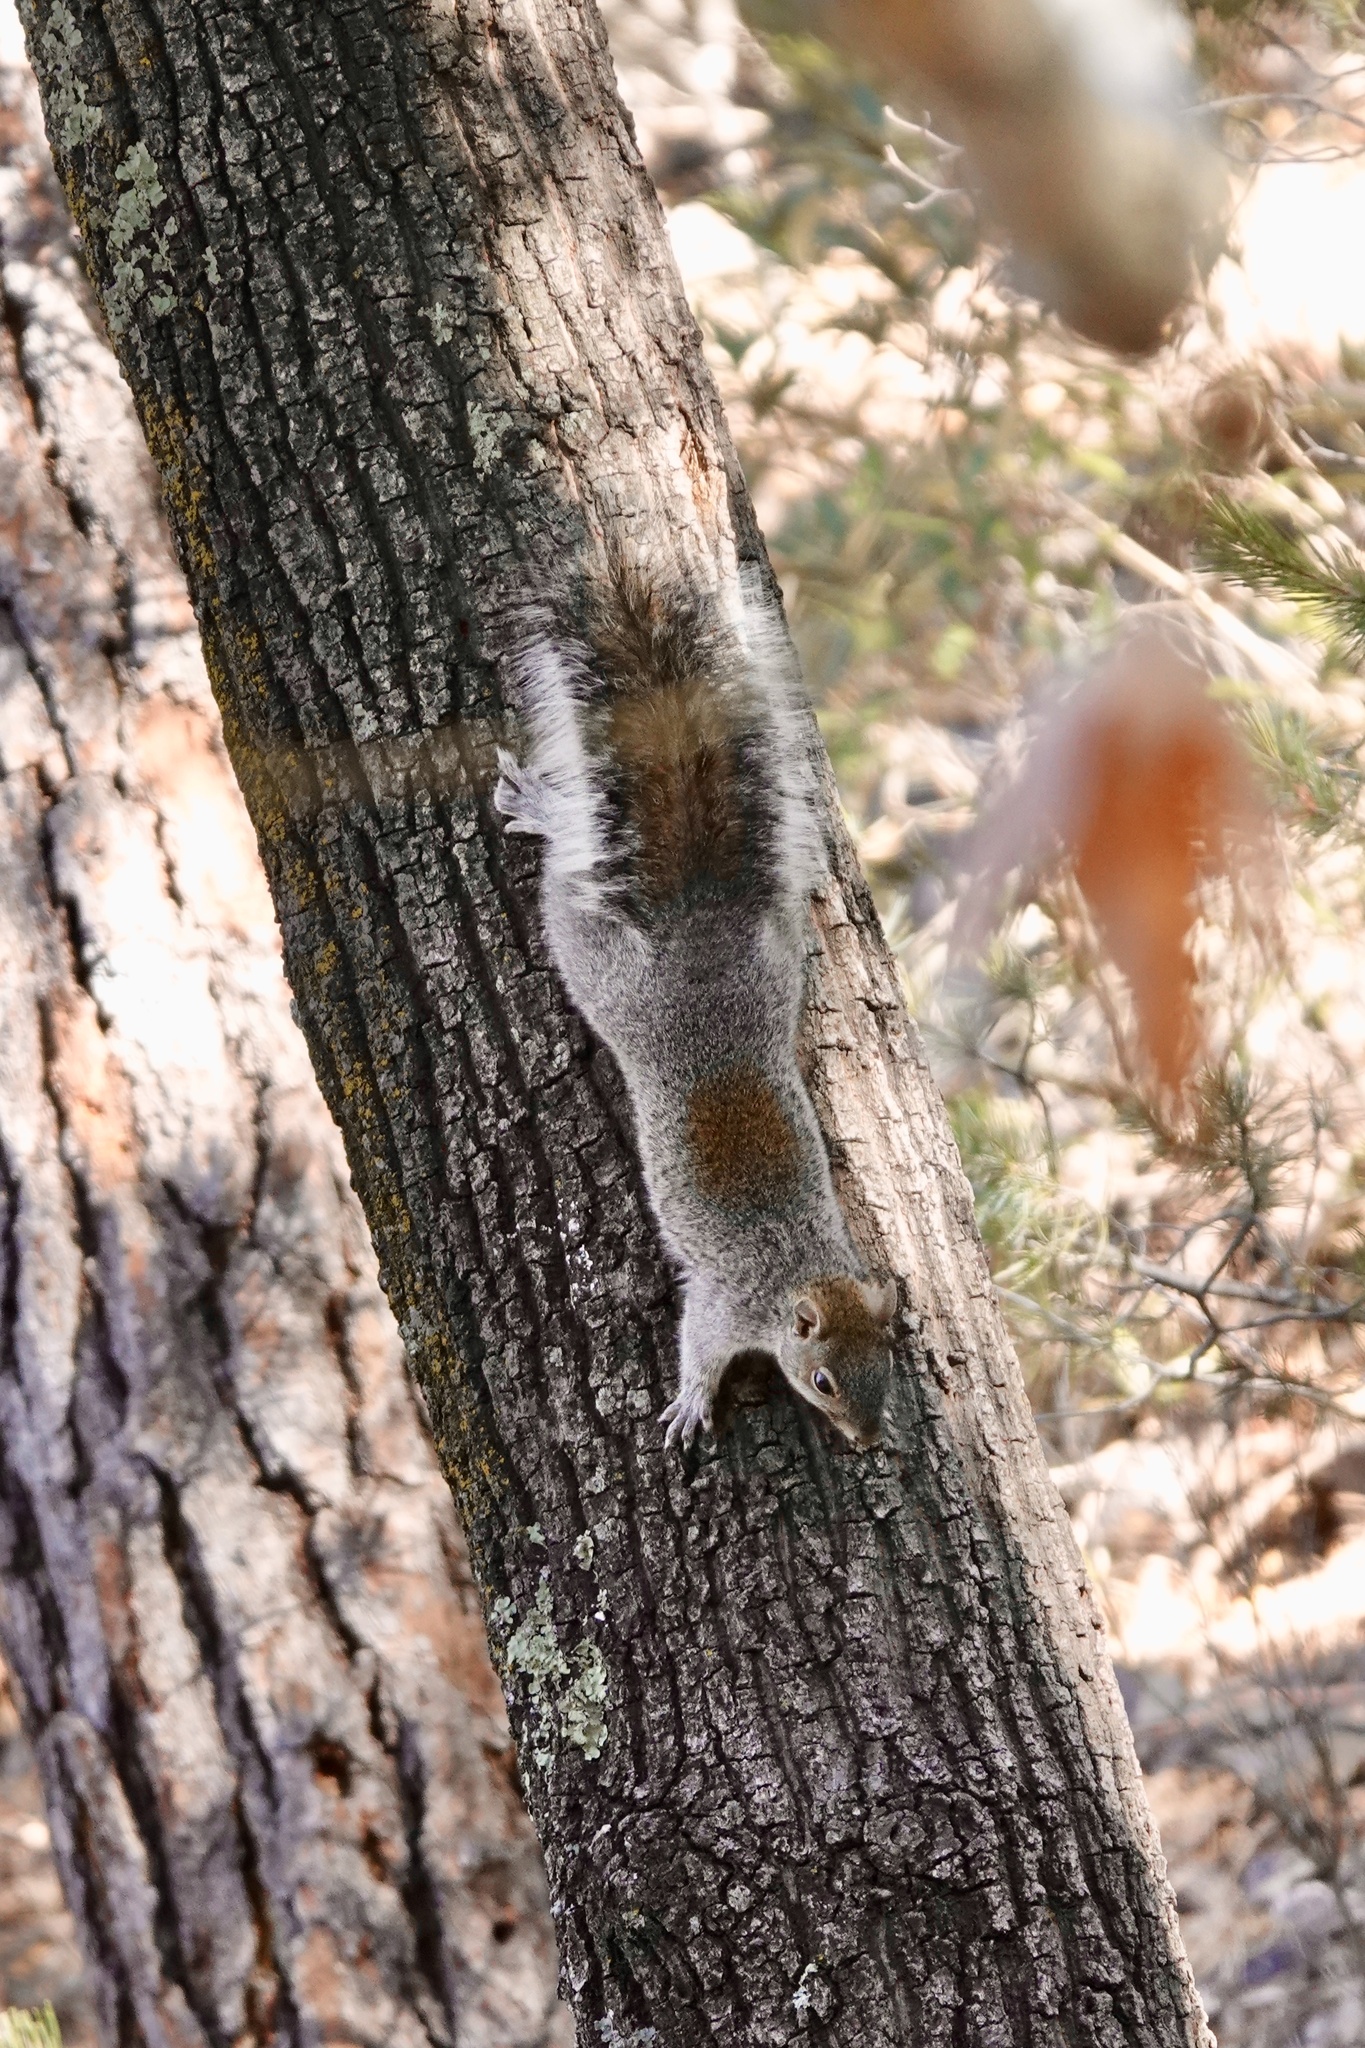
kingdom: Animalia
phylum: Chordata
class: Mammalia
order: Rodentia
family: Sciuridae
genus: Sciurus
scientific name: Sciurus arizonensis
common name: Arizona gray squirrel
